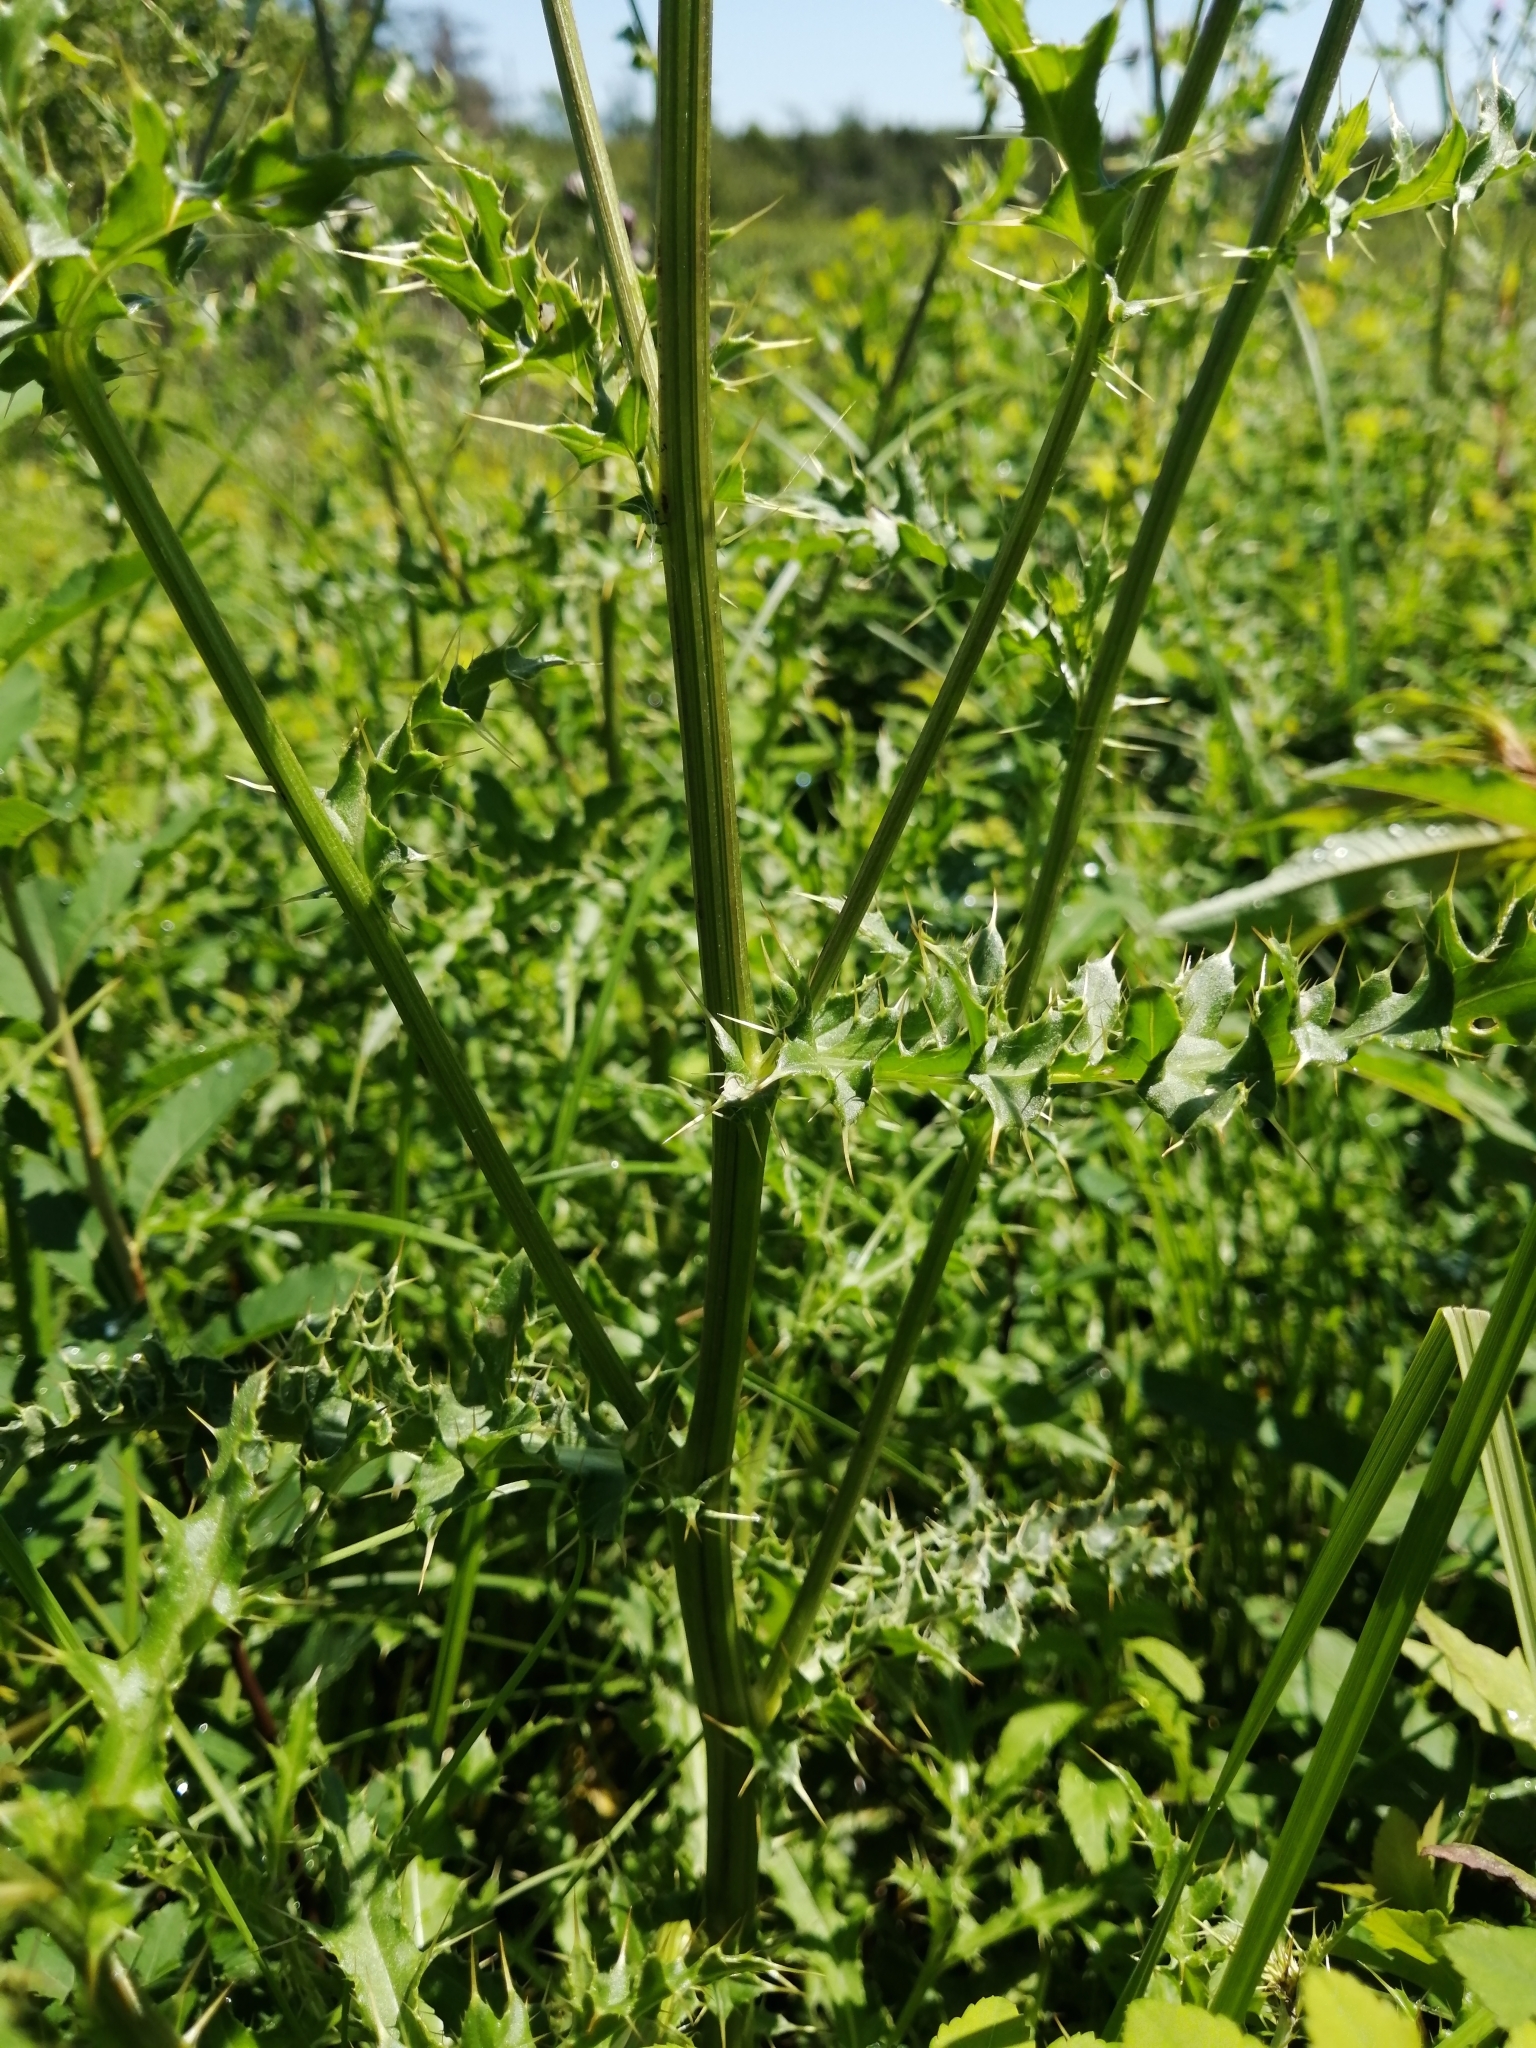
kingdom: Plantae
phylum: Tracheophyta
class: Magnoliopsida
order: Asterales
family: Asteraceae
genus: Cirsium
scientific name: Cirsium arvense
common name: Creeping thistle
